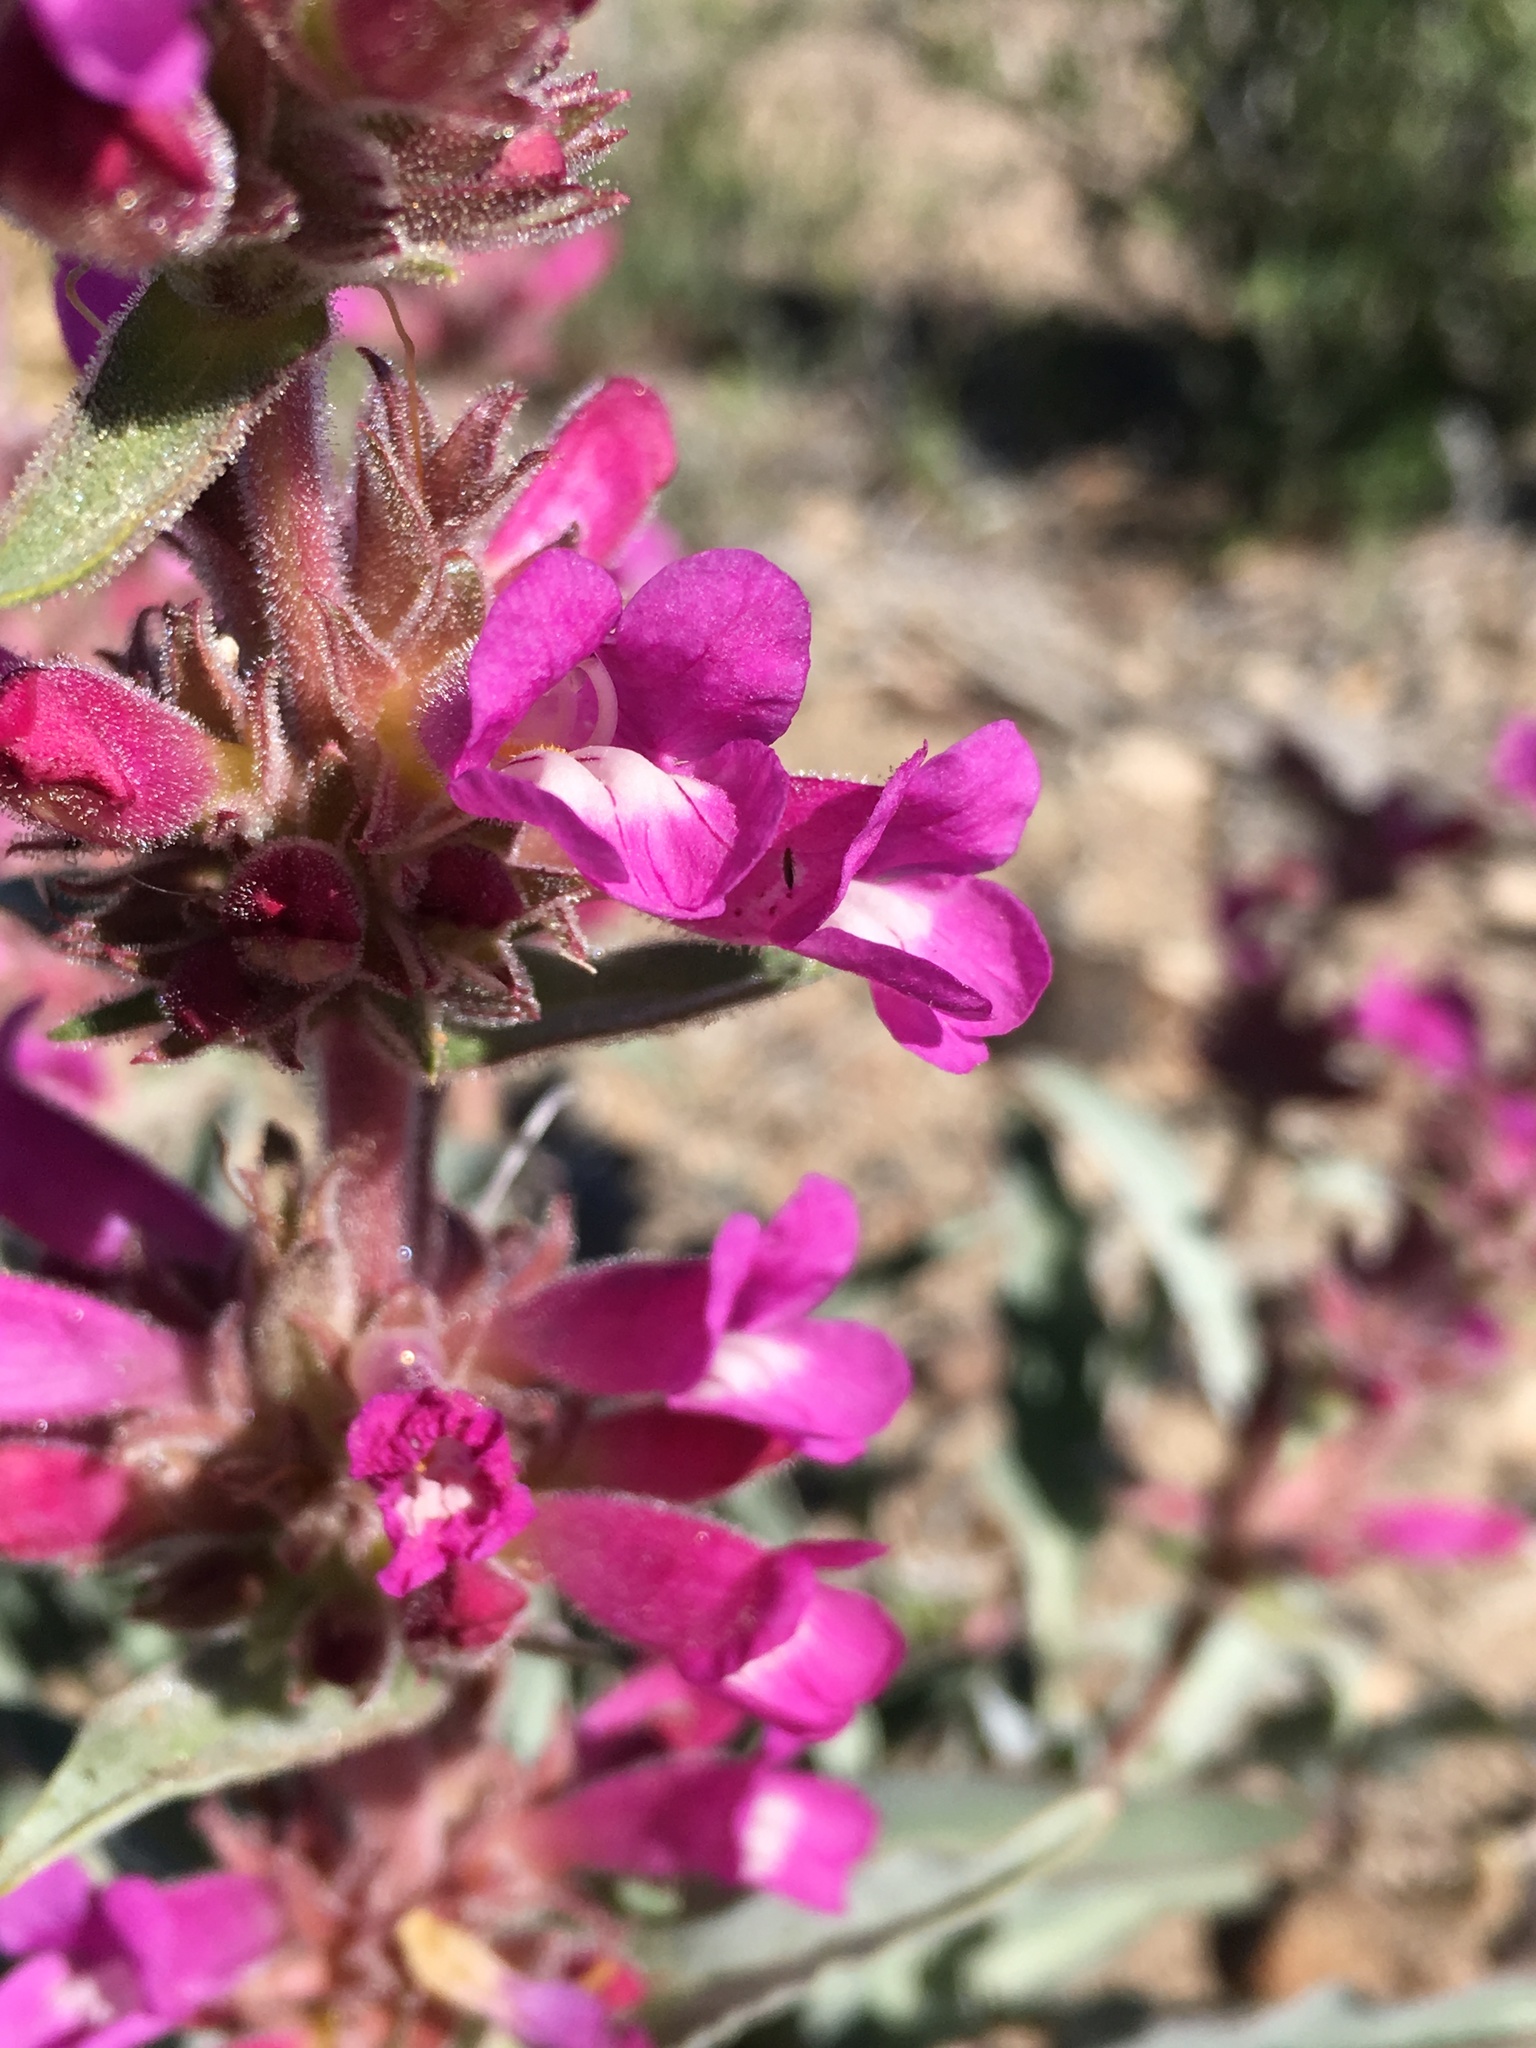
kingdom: Plantae
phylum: Tracheophyta
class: Magnoliopsida
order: Lamiales
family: Plantaginaceae
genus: Penstemon
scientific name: Penstemon monoensis
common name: Mono penstemon
